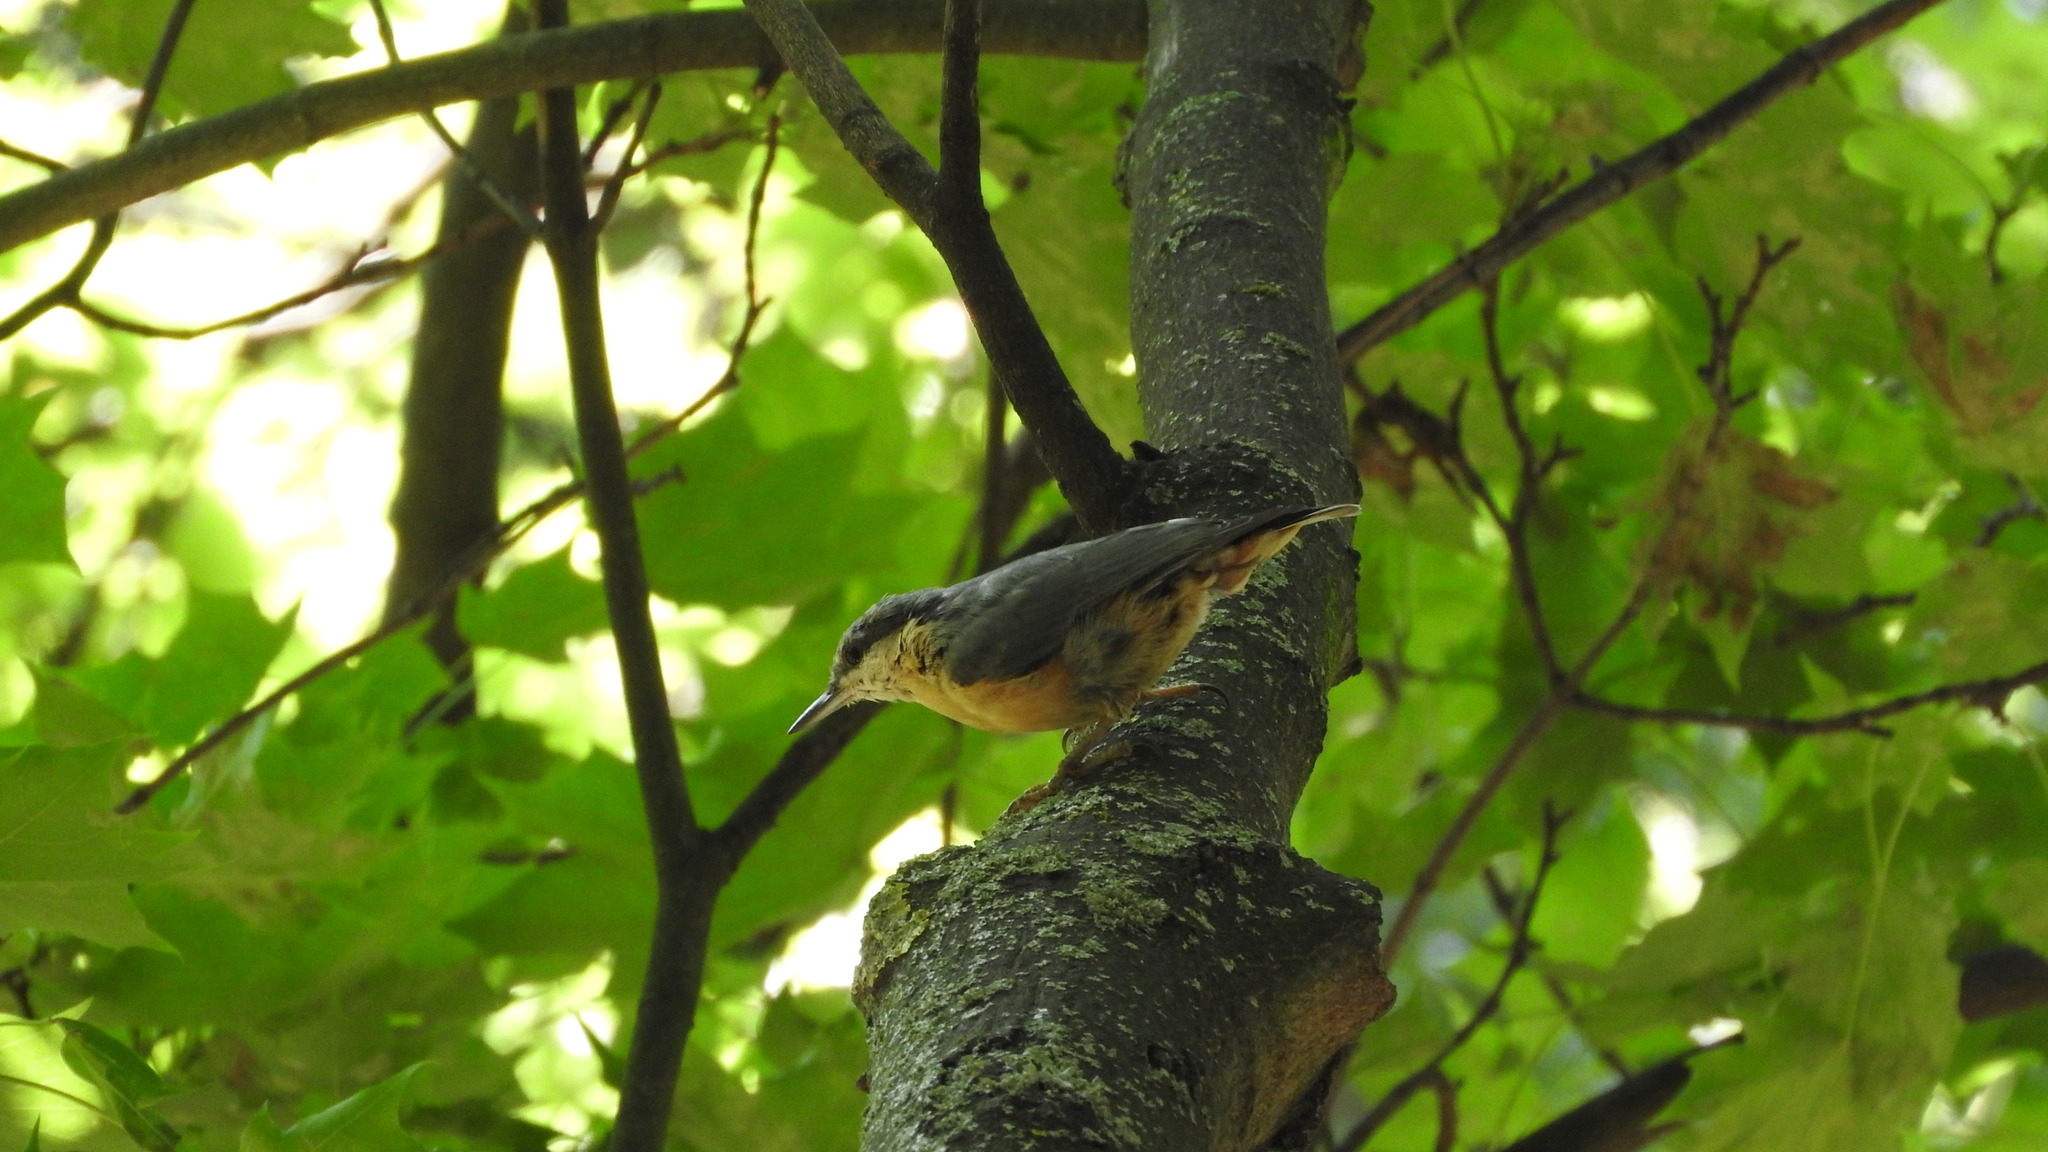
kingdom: Animalia
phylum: Chordata
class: Aves
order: Passeriformes
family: Sittidae
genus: Sitta
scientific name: Sitta europaea
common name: Eurasian nuthatch
